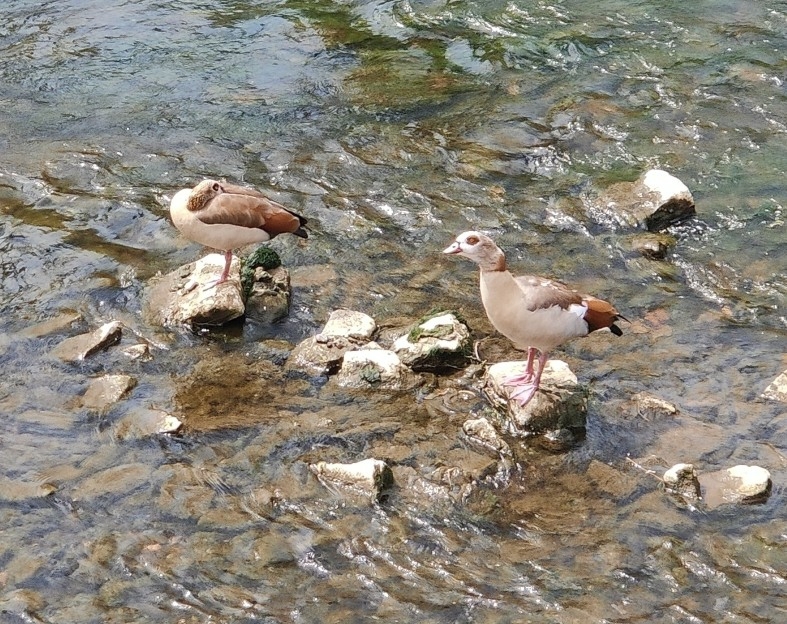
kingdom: Animalia
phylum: Chordata
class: Aves
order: Anseriformes
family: Anatidae
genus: Alopochen
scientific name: Alopochen aegyptiaca
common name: Egyptian goose
